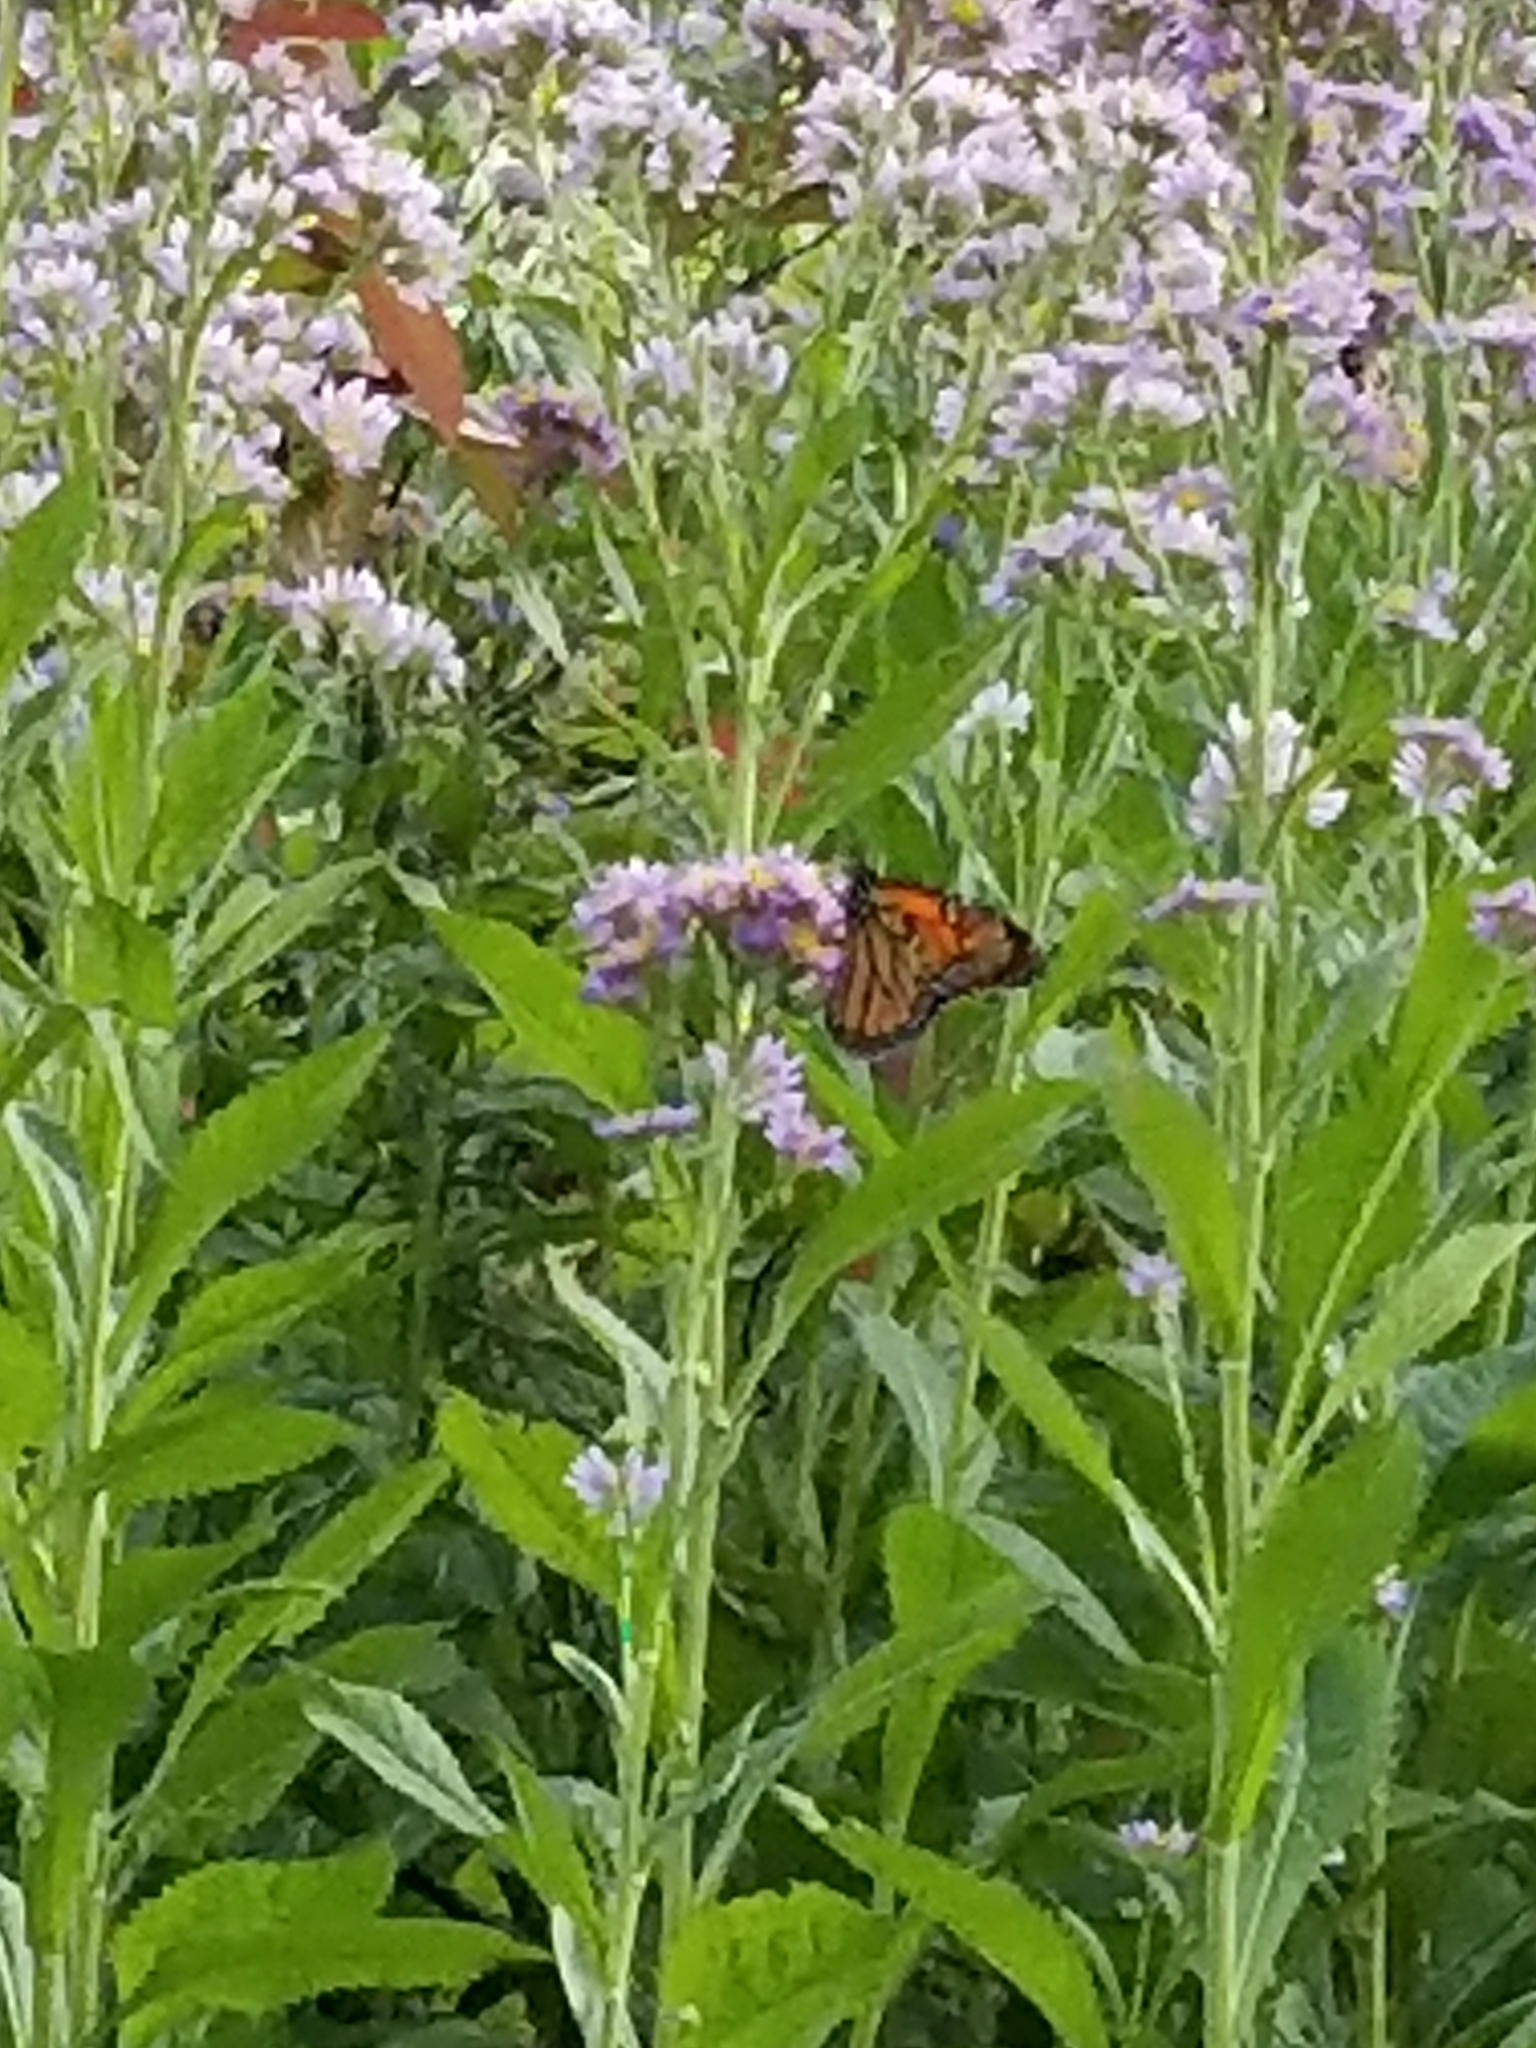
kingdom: Animalia
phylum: Arthropoda
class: Insecta
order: Lepidoptera
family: Nymphalidae
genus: Danaus
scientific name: Danaus plexippus
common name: Monarch
